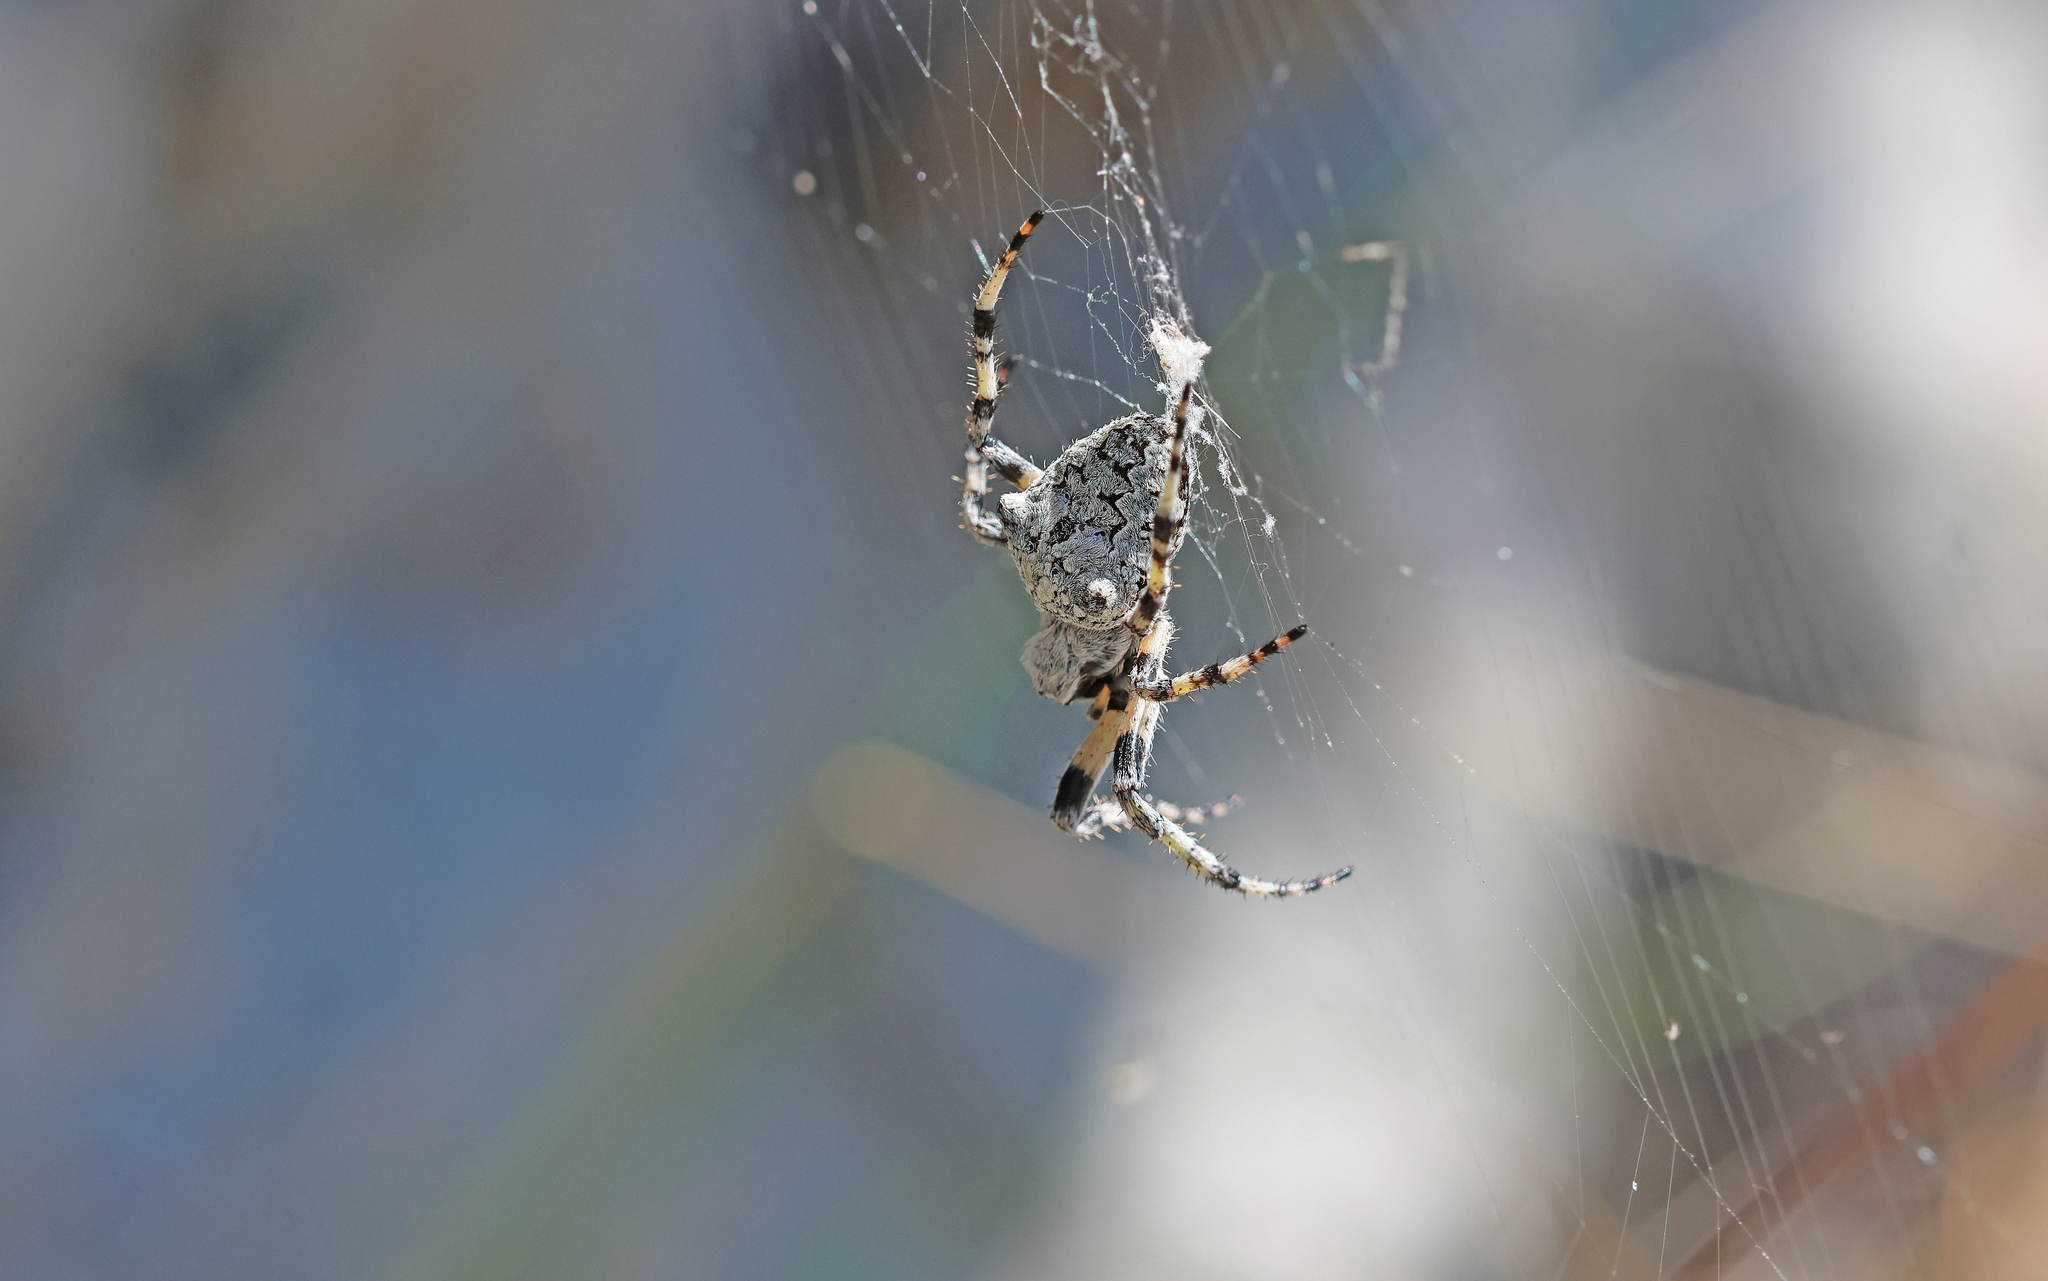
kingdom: Animalia
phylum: Arthropoda
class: Arachnida
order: Araneae
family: Araneidae
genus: Araneus
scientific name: Araneus circe
